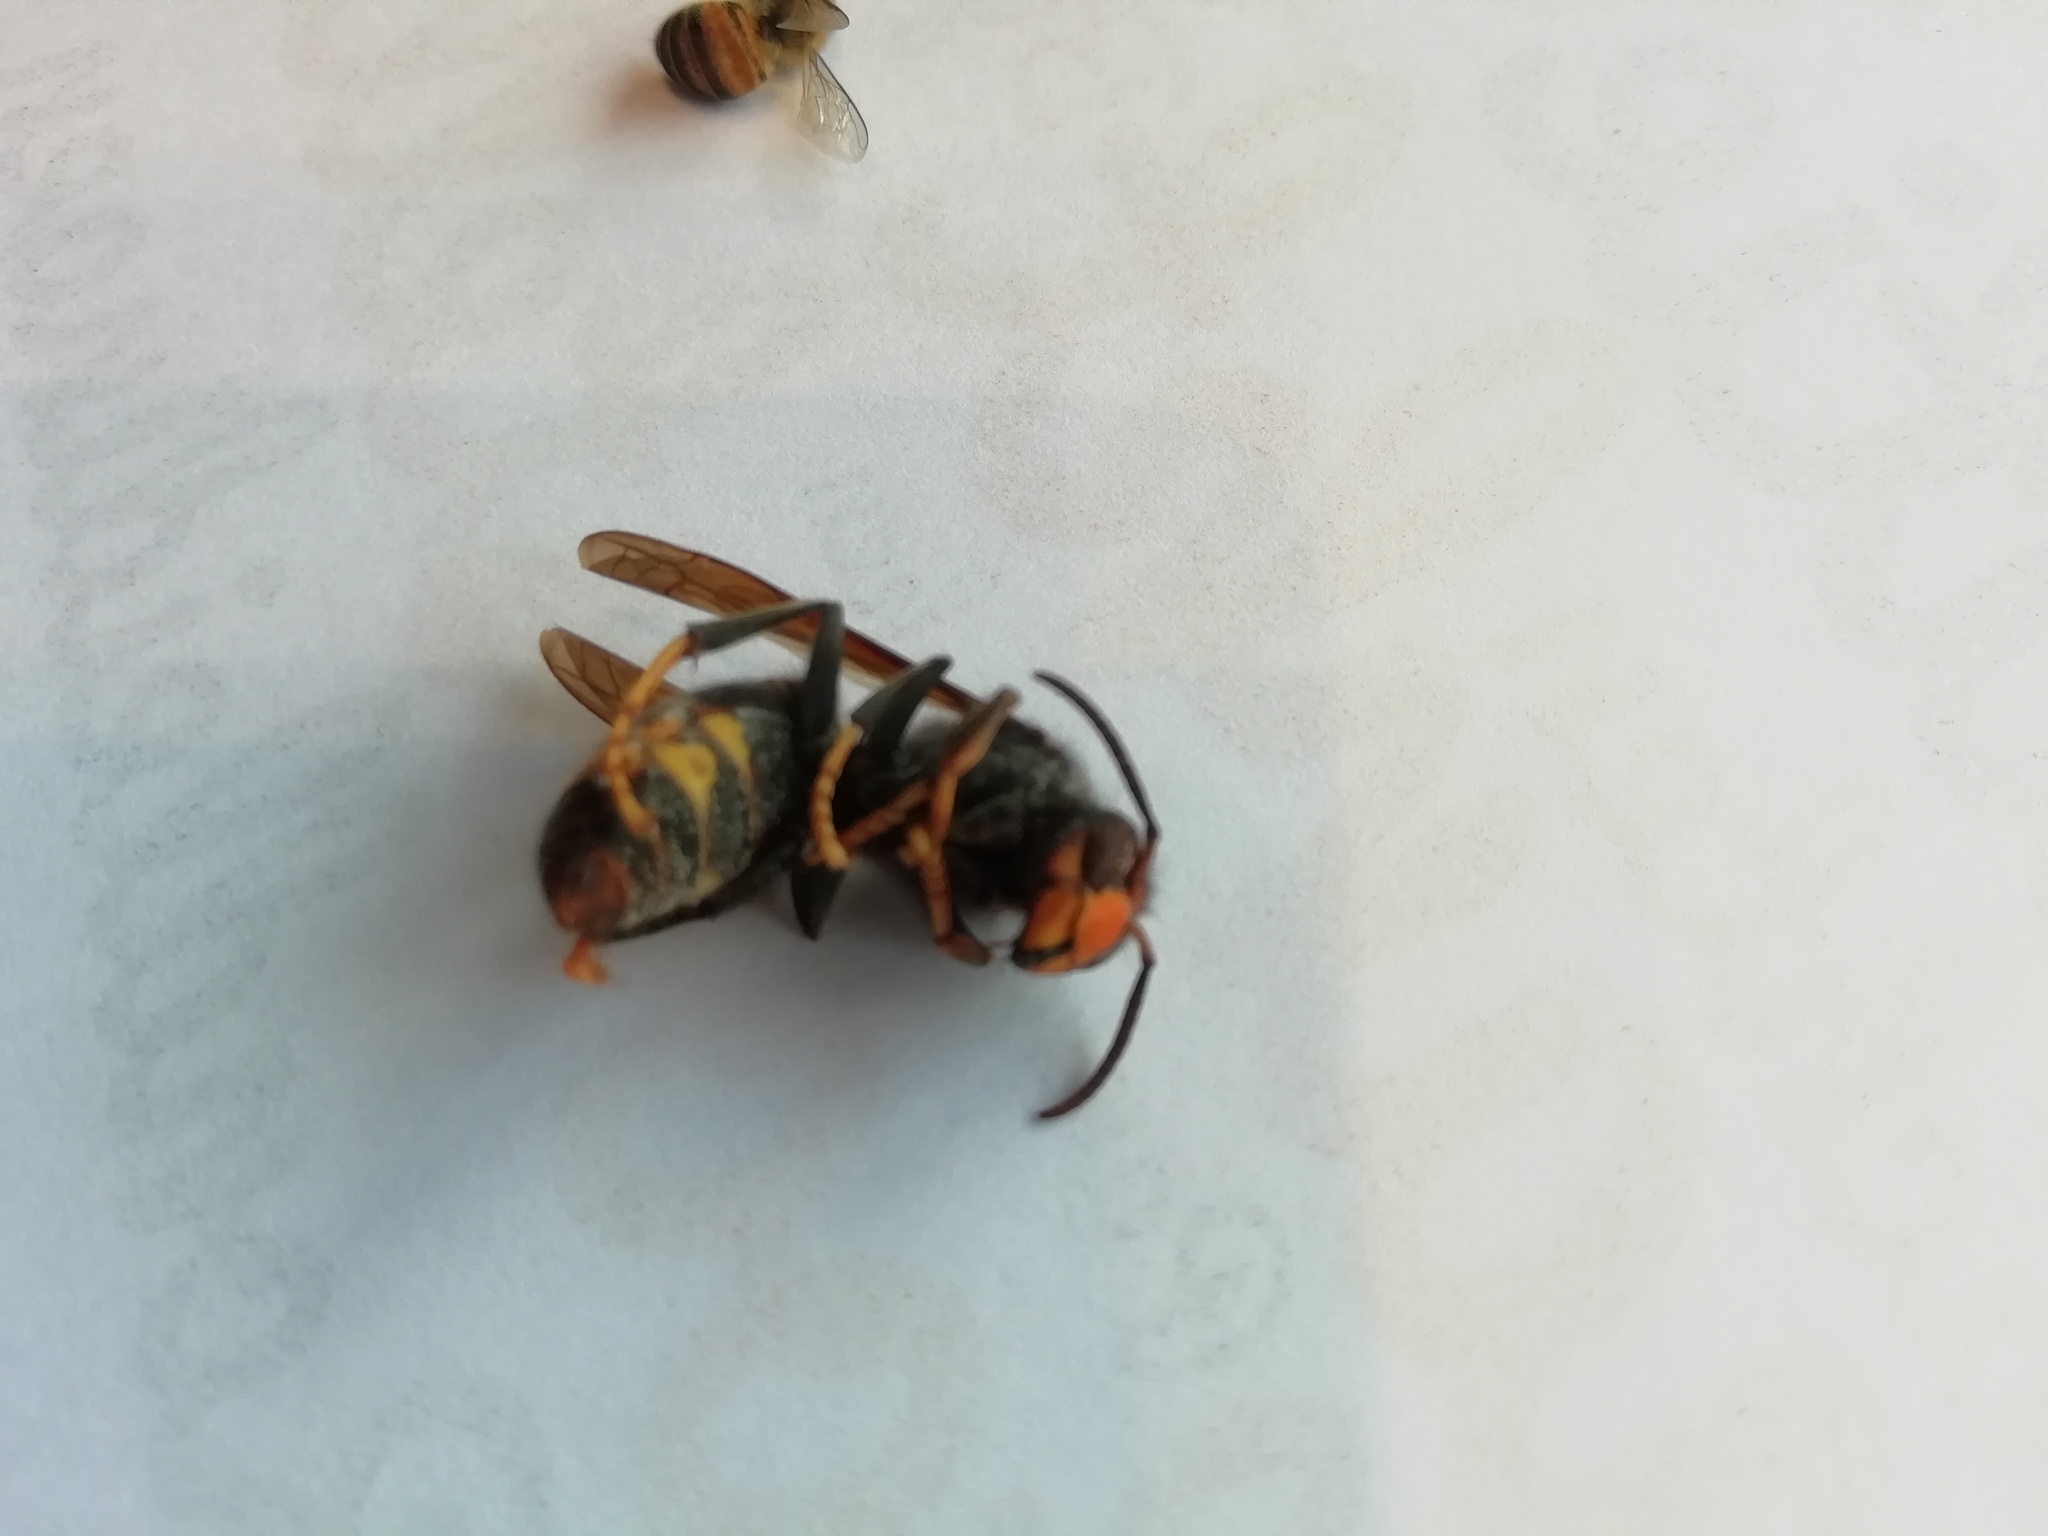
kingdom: Animalia
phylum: Arthropoda
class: Insecta
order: Hymenoptera
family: Vespidae
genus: Vespa
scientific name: Vespa velutina
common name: Asian hornet
